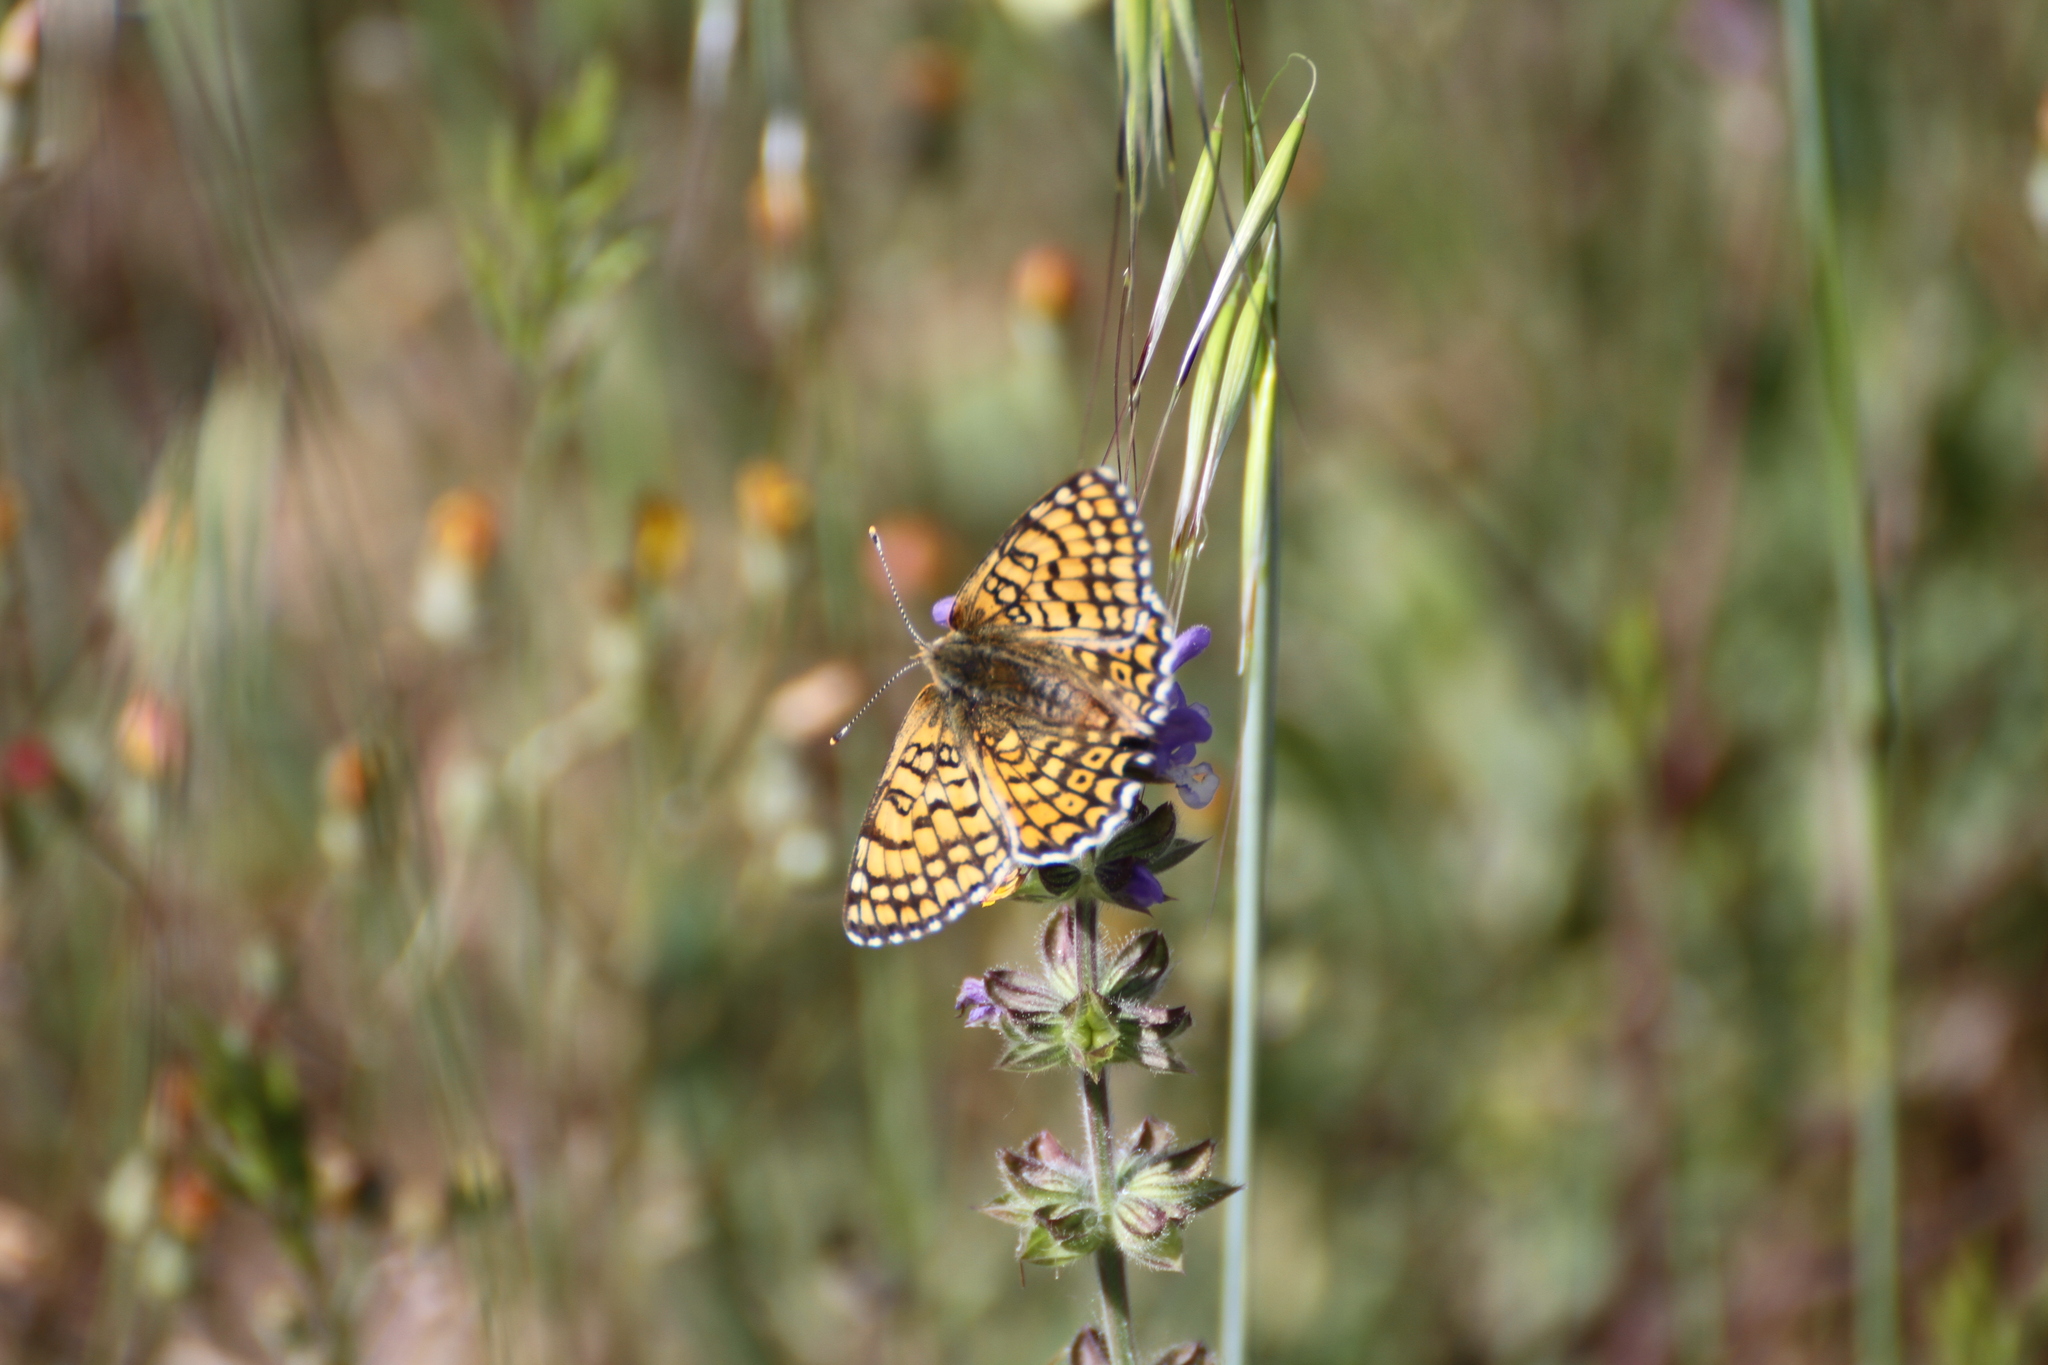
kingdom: Animalia
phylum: Arthropoda
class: Insecta
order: Lepidoptera
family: Nymphalidae
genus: Melitaea
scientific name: Melitaea cinxia
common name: Glanville fritillary
